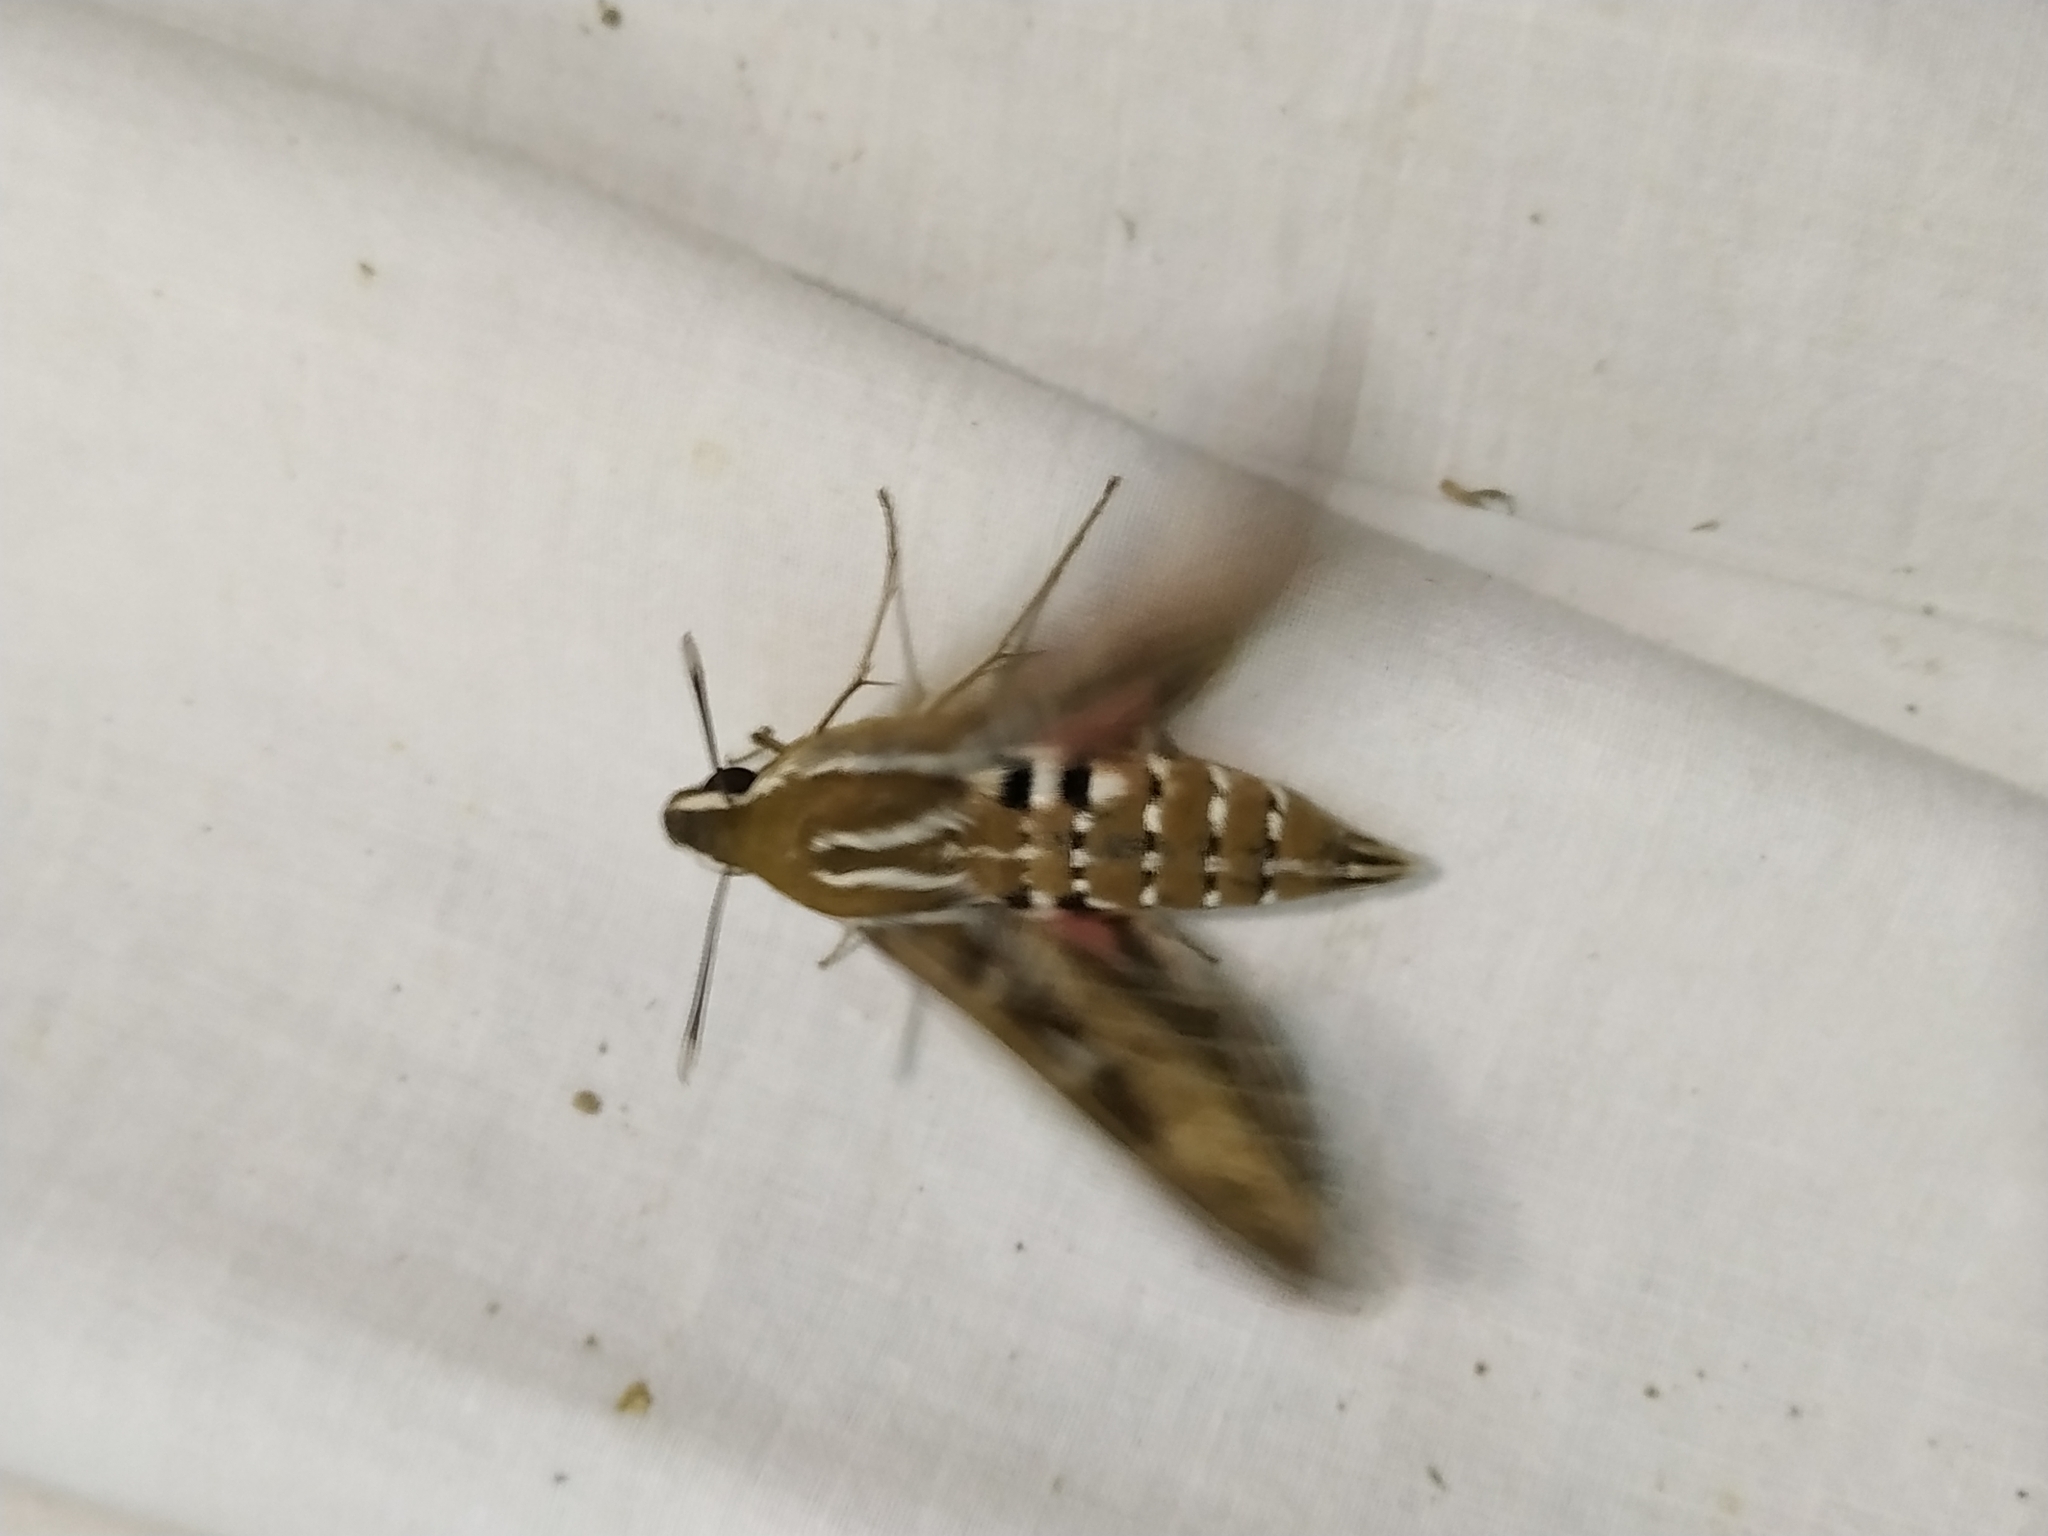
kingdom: Animalia
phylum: Arthropoda
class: Insecta
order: Lepidoptera
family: Sphingidae
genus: Hyles
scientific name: Hyles livornica
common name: Striped hawk-moth
